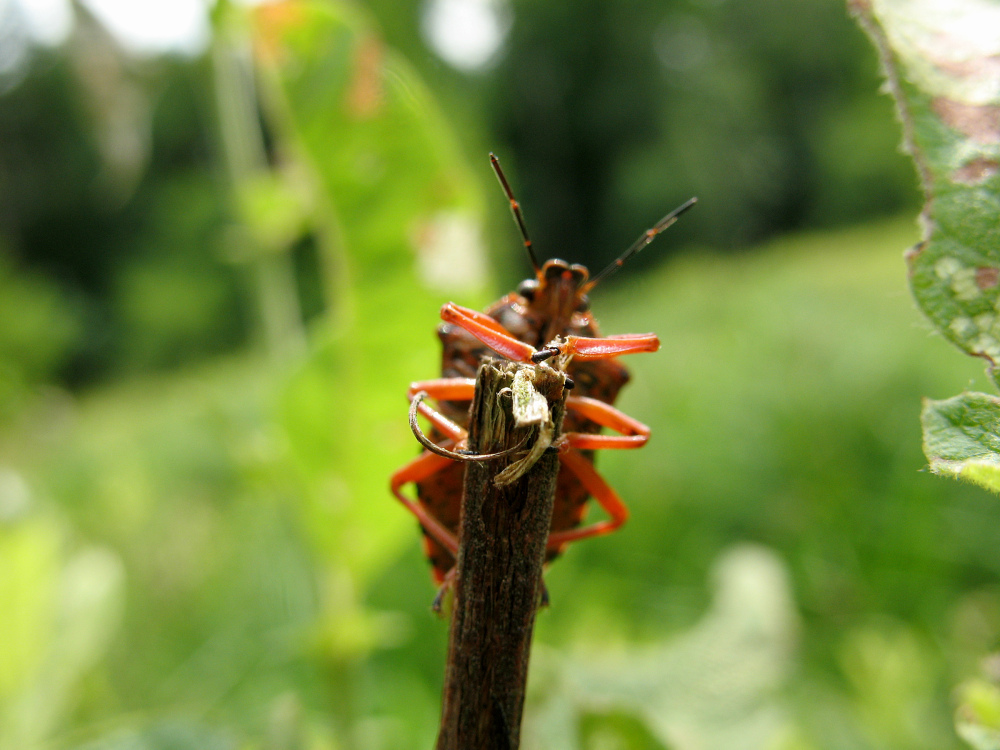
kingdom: Animalia
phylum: Arthropoda
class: Insecta
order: Hemiptera
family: Pentatomidae
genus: Pinthaeus
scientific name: Pinthaeus sanguinipes
